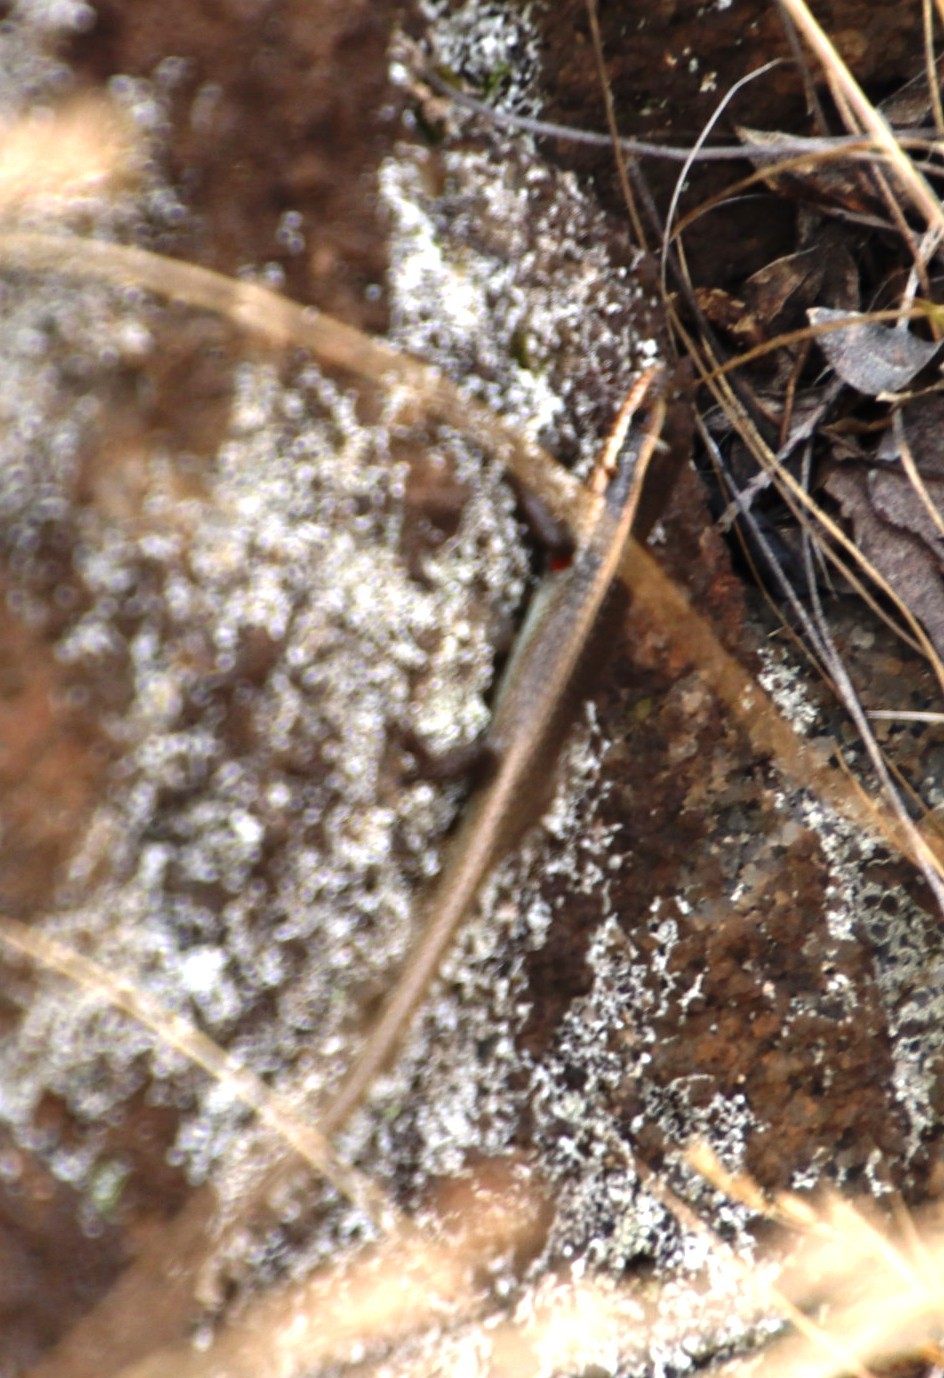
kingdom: Animalia
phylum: Chordata
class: Squamata
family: Scincidae
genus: Trachylepis
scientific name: Trachylepis punctatissima
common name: Montane speckled skink
